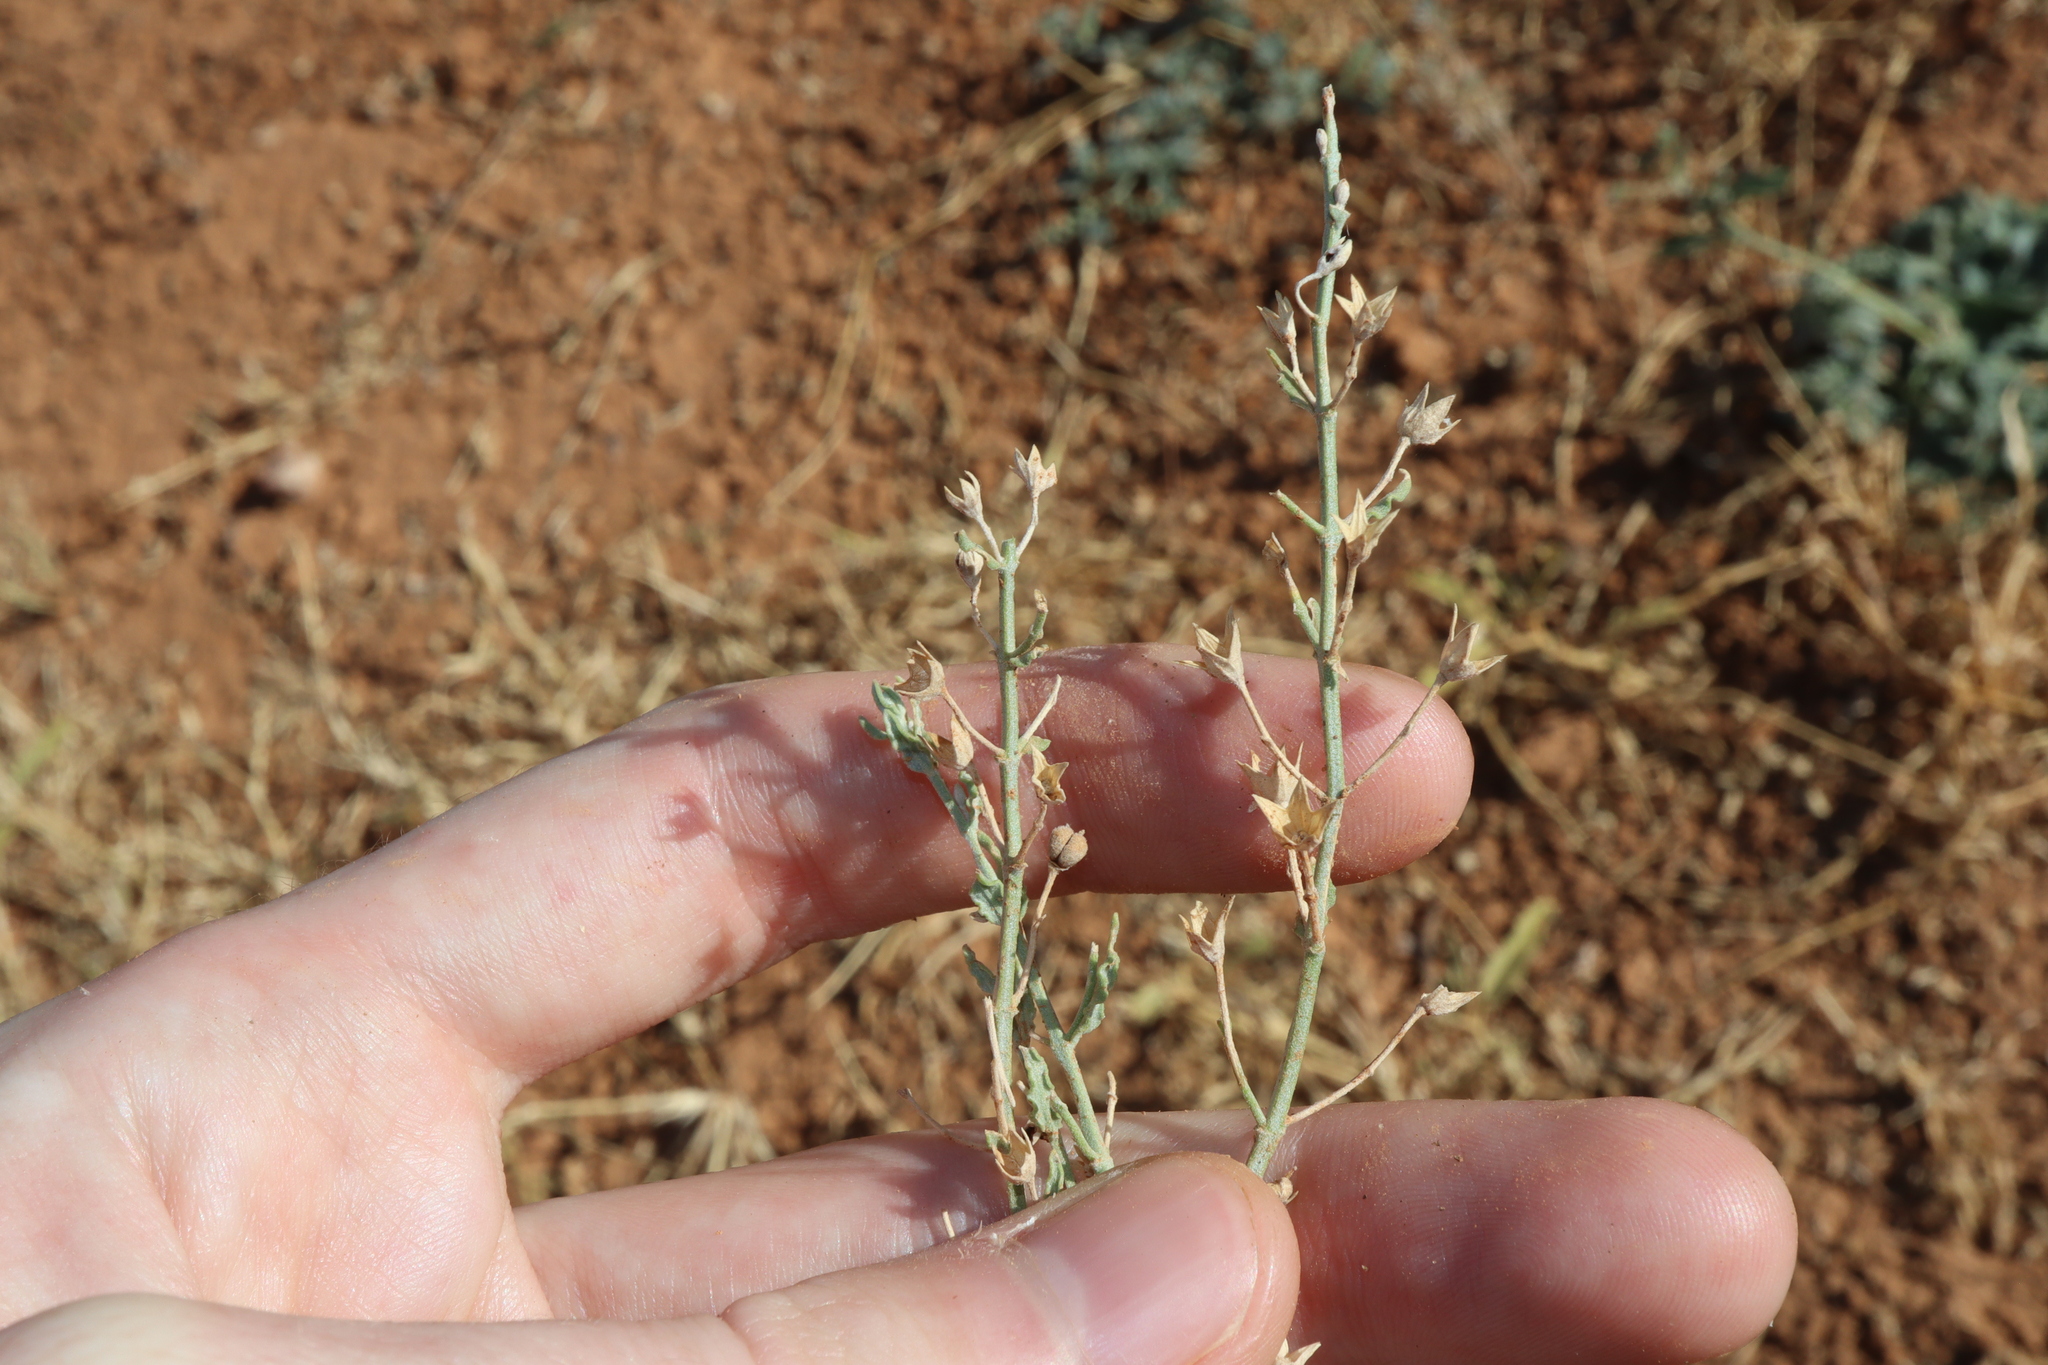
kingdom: Plantae
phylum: Tracheophyta
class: Magnoliopsida
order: Lamiales
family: Lamiaceae
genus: Teucrium
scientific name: Teucrium racemosum
